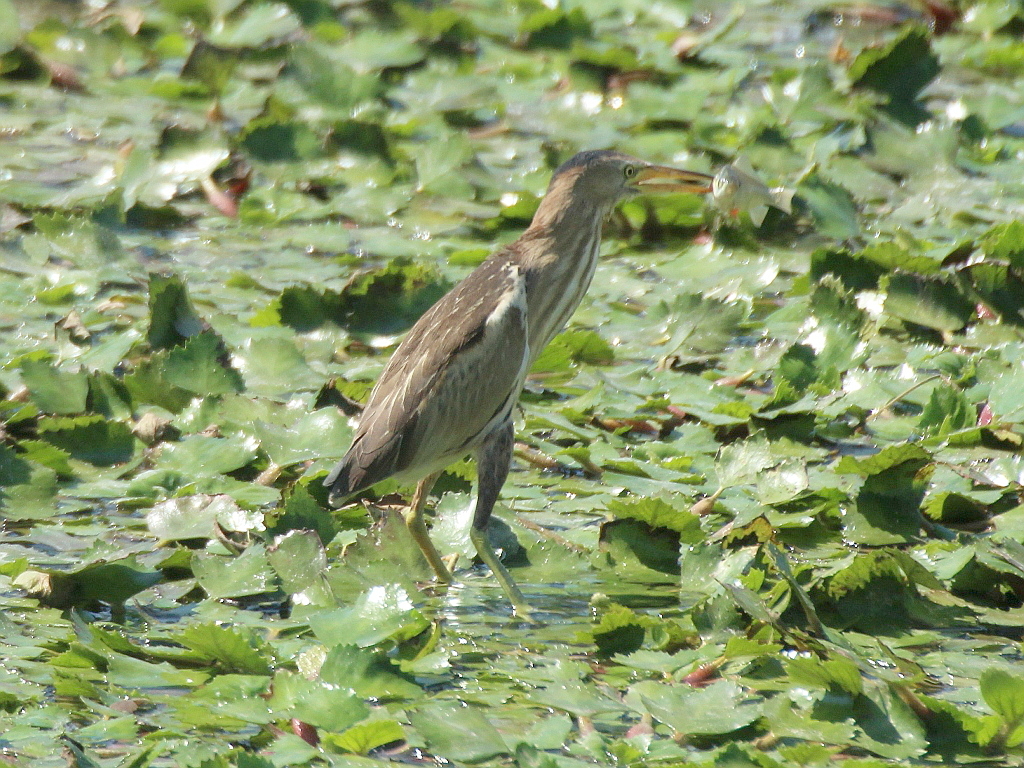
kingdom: Animalia
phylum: Chordata
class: Aves
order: Pelecaniformes
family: Ardeidae
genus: Ixobrychus
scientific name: Ixobrychus minutus
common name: Little bittern
